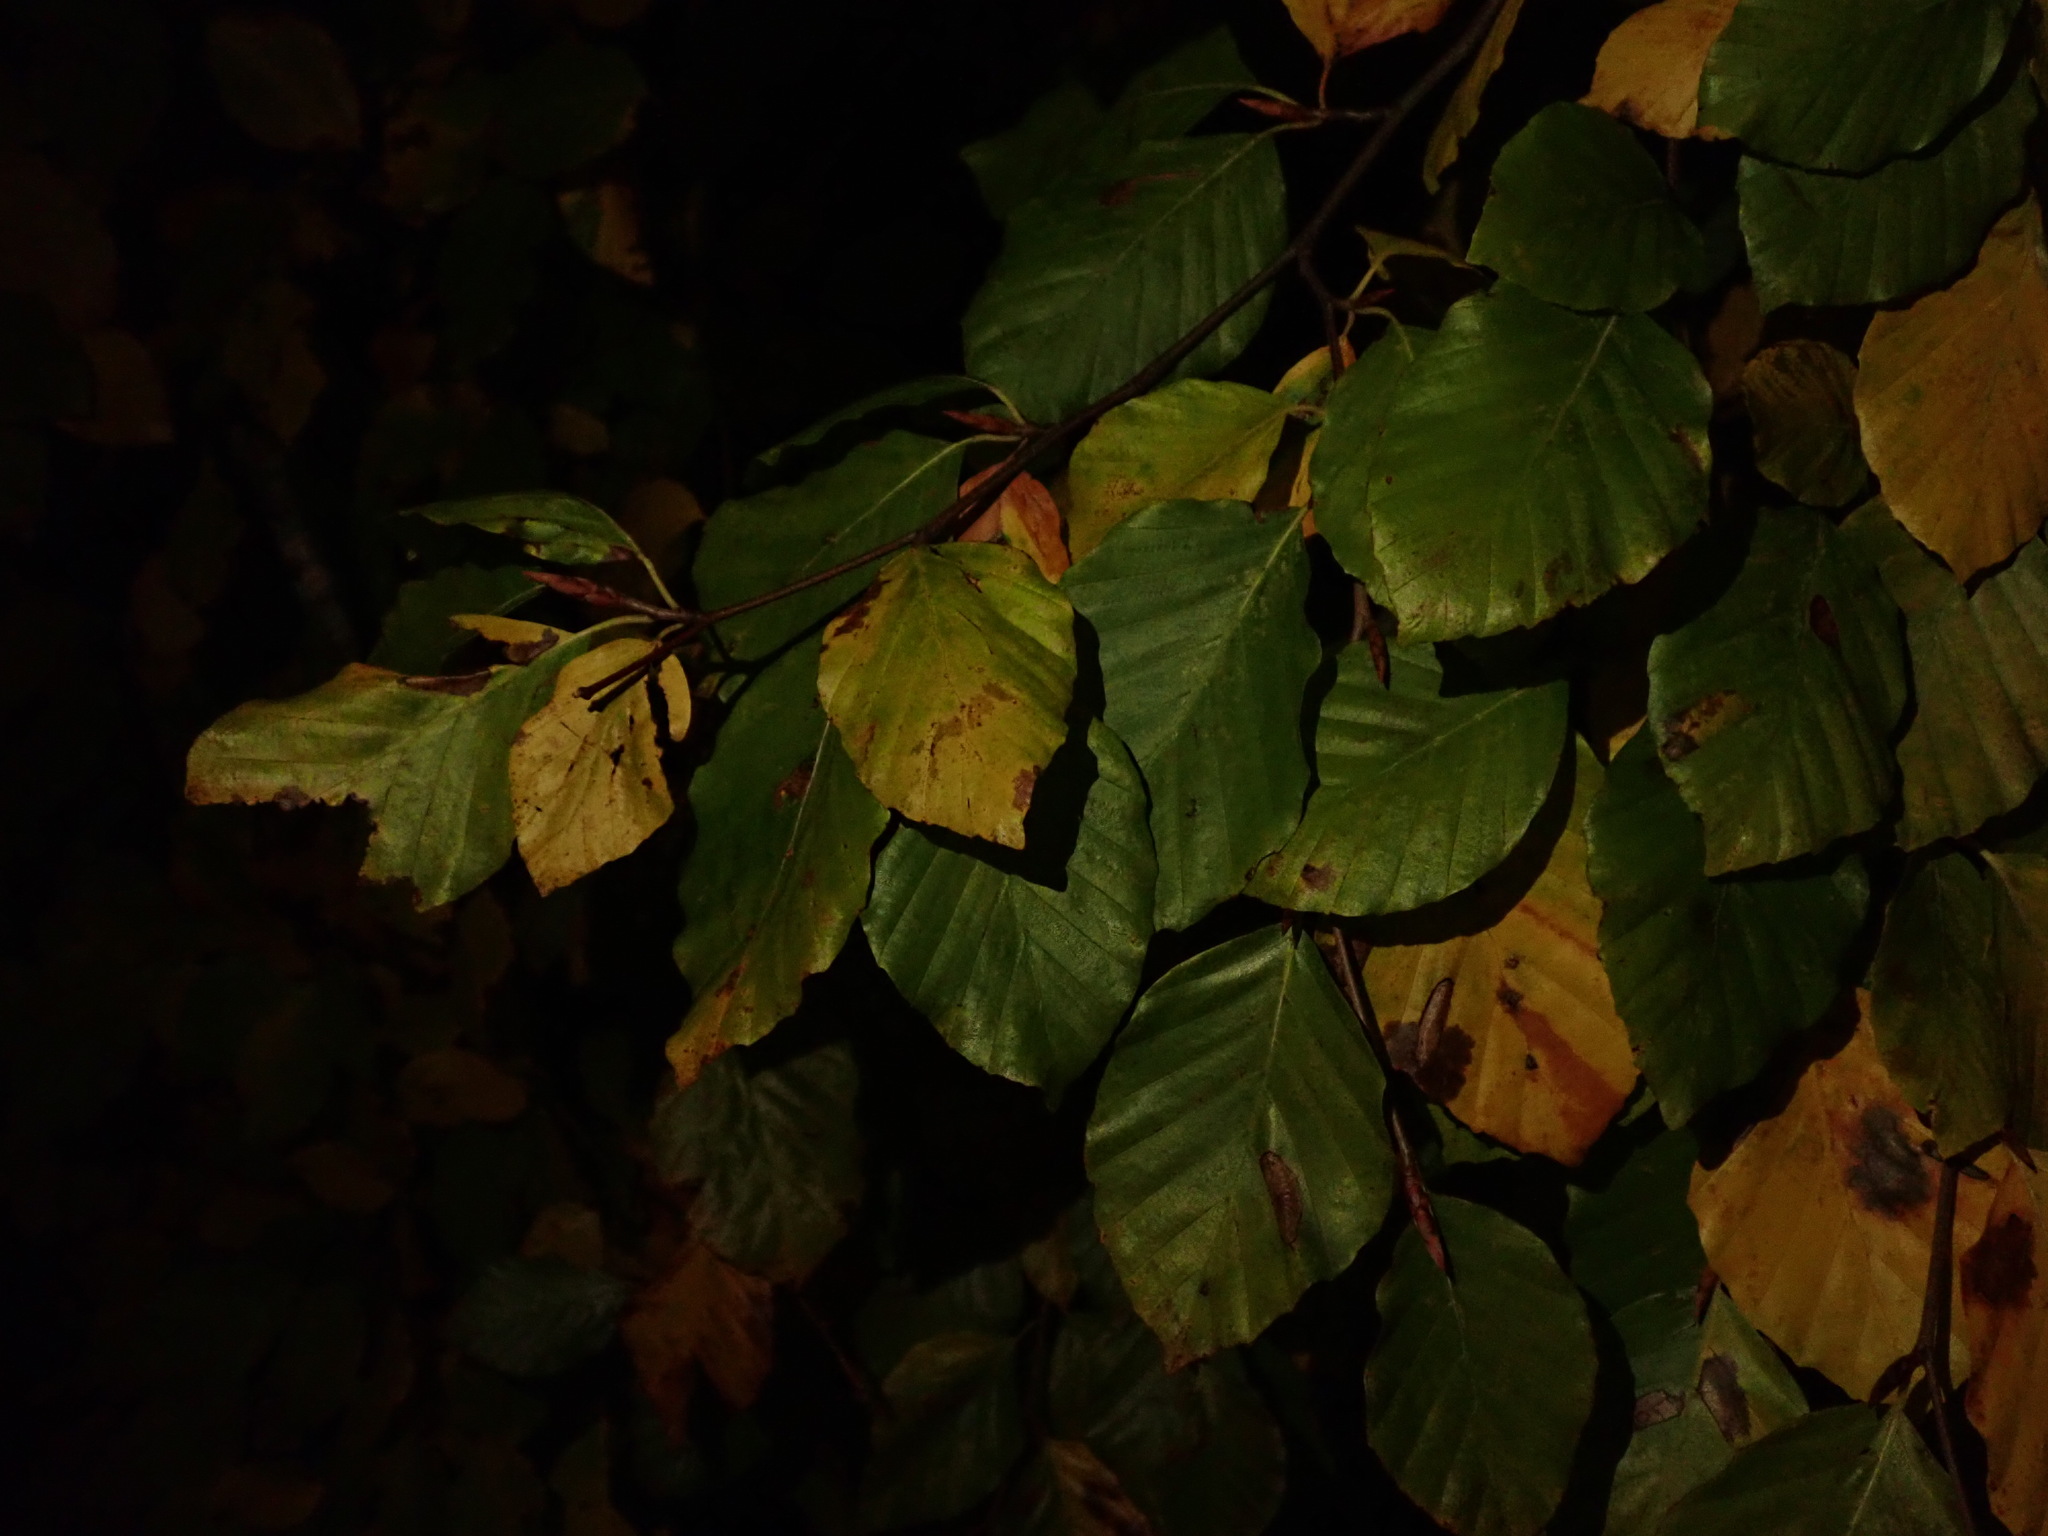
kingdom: Plantae
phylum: Tracheophyta
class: Magnoliopsida
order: Fagales
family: Fagaceae
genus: Fagus
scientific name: Fagus sylvatica
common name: Beech
